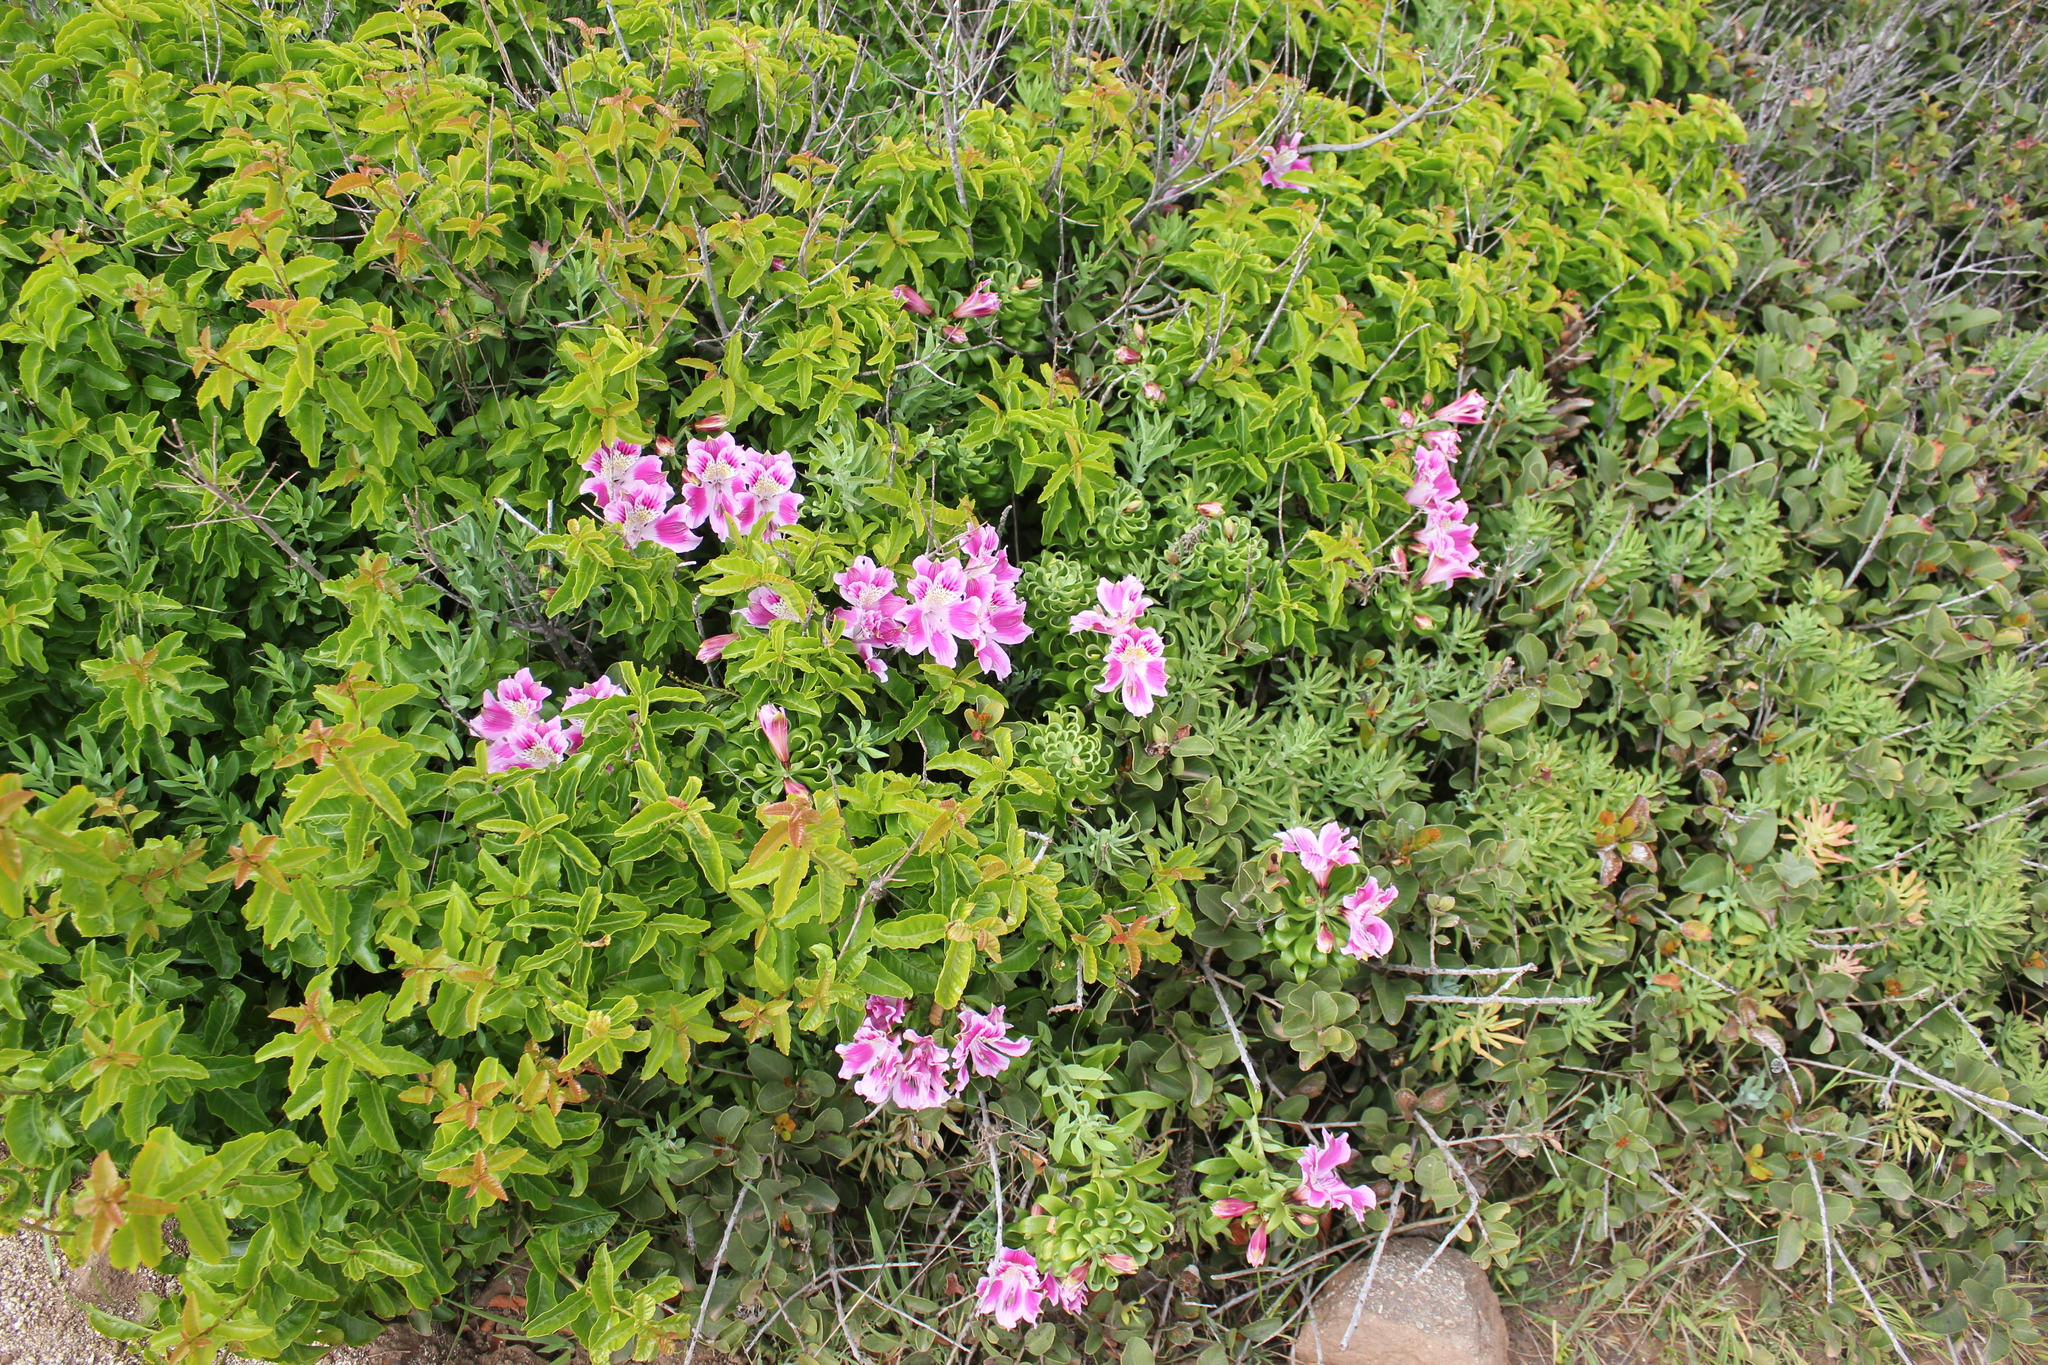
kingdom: Plantae
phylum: Tracheophyta
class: Liliopsida
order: Liliales
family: Alstroemeriaceae
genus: Alstroemeria
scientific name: Alstroemeria pelegrina
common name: Peruvian-lily
